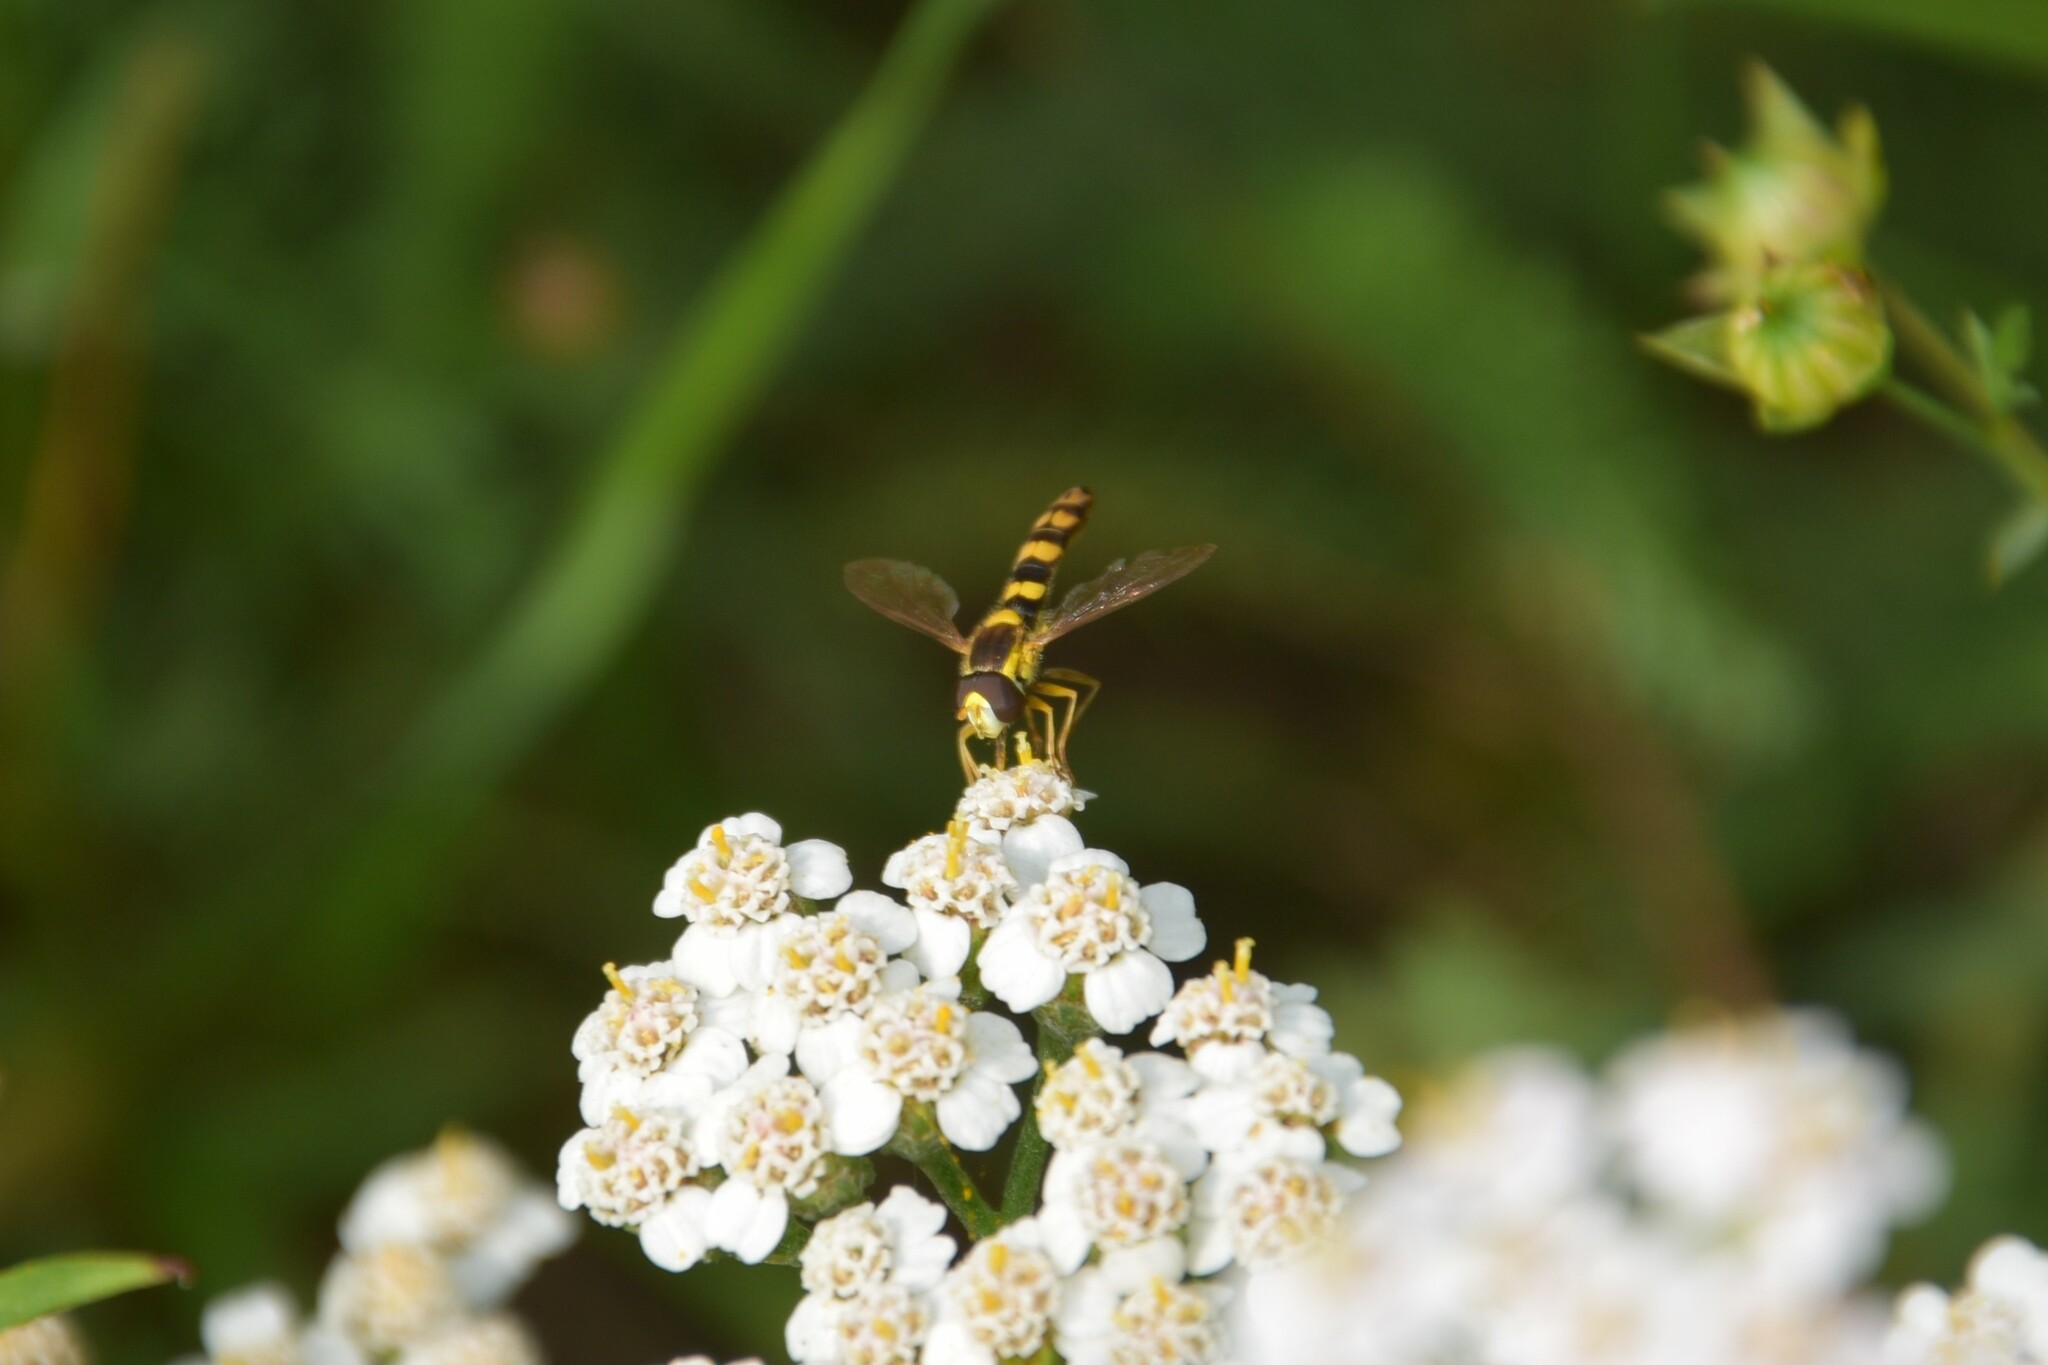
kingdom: Animalia
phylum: Arthropoda
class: Insecta
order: Diptera
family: Syrphidae
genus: Sphaerophoria
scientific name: Sphaerophoria scripta
